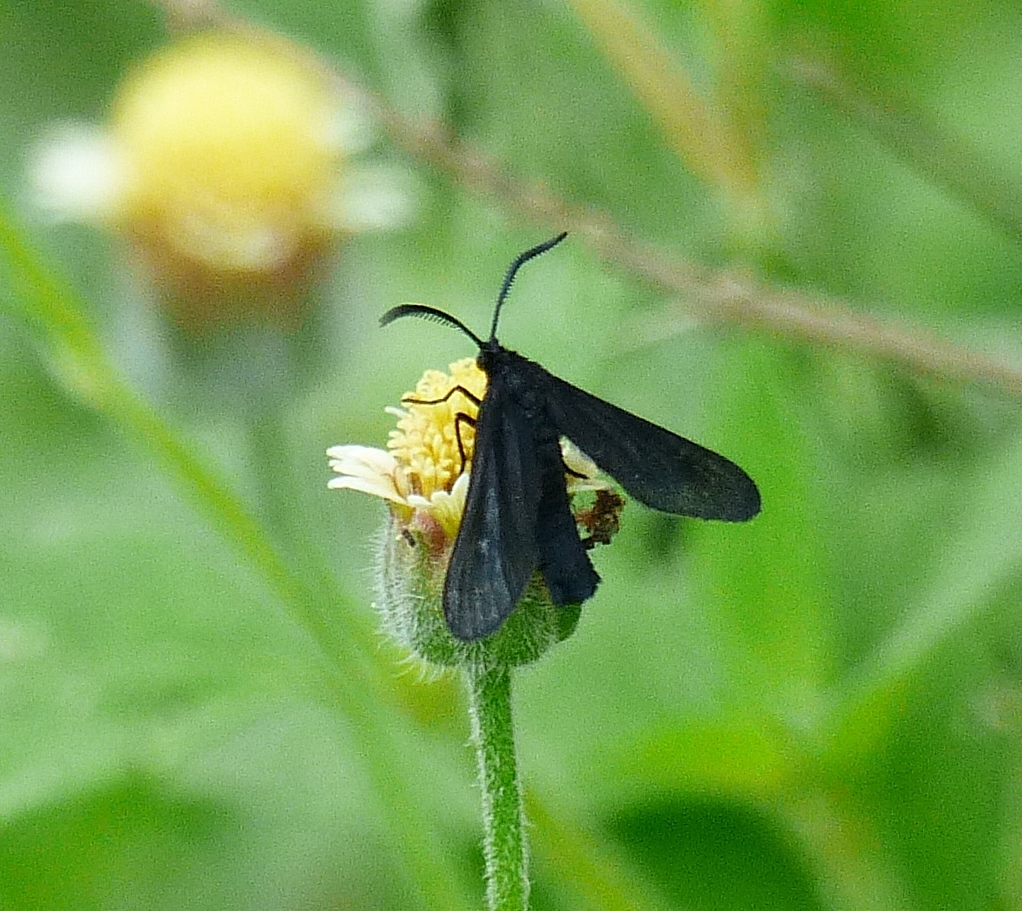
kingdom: Animalia
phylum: Arthropoda
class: Insecta
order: Lepidoptera
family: Zygaenidae
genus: Harrisina
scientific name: Harrisina coracina
